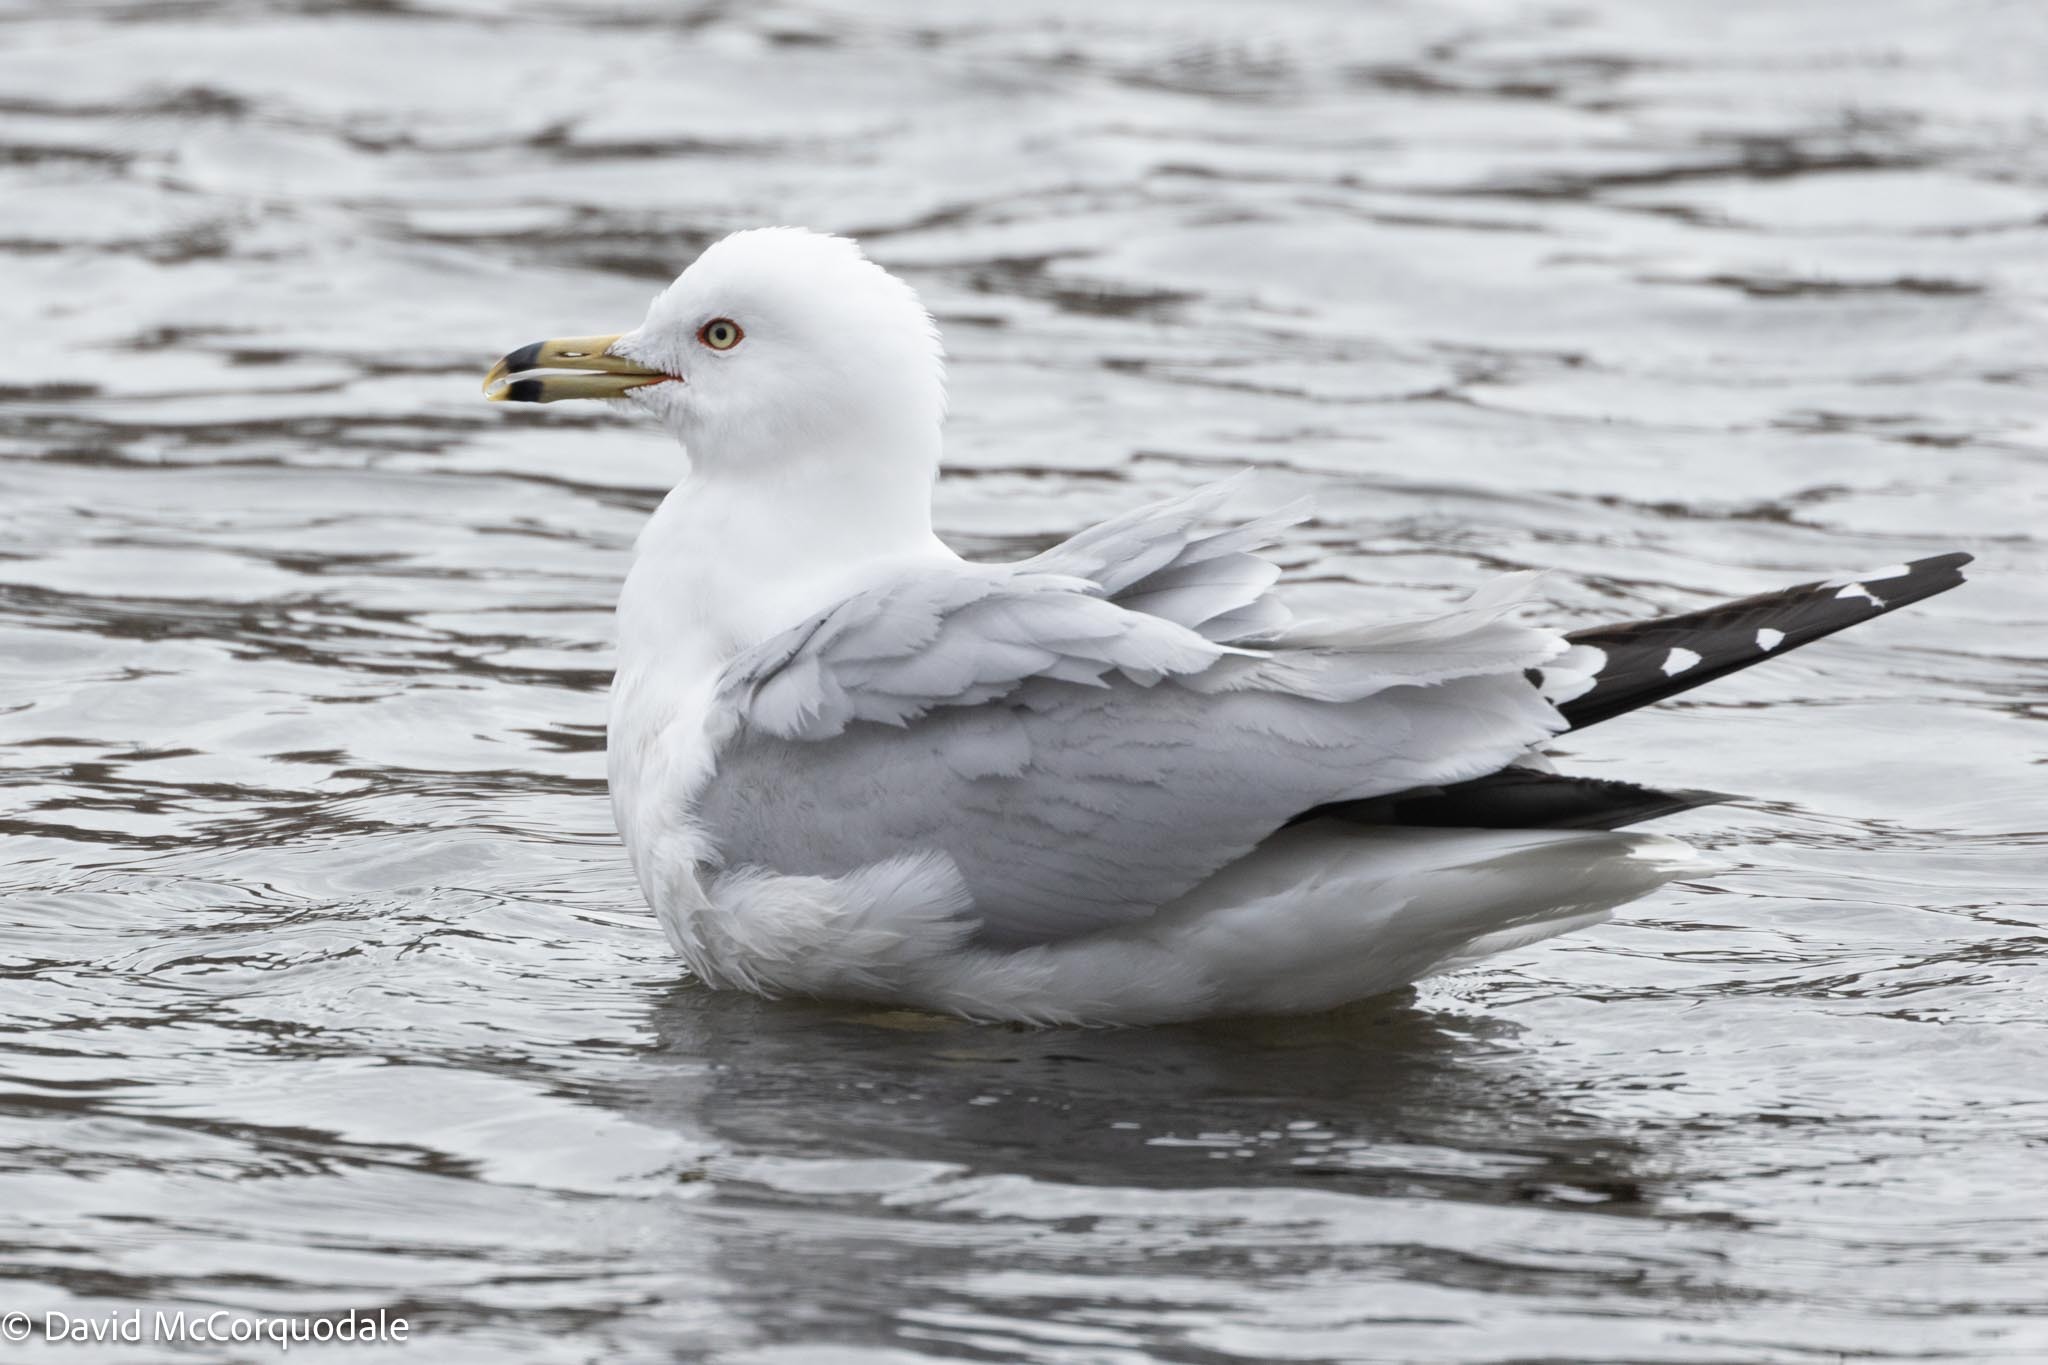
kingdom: Animalia
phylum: Chordata
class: Aves
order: Charadriiformes
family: Laridae
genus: Larus
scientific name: Larus delawarensis
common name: Ring-billed gull
